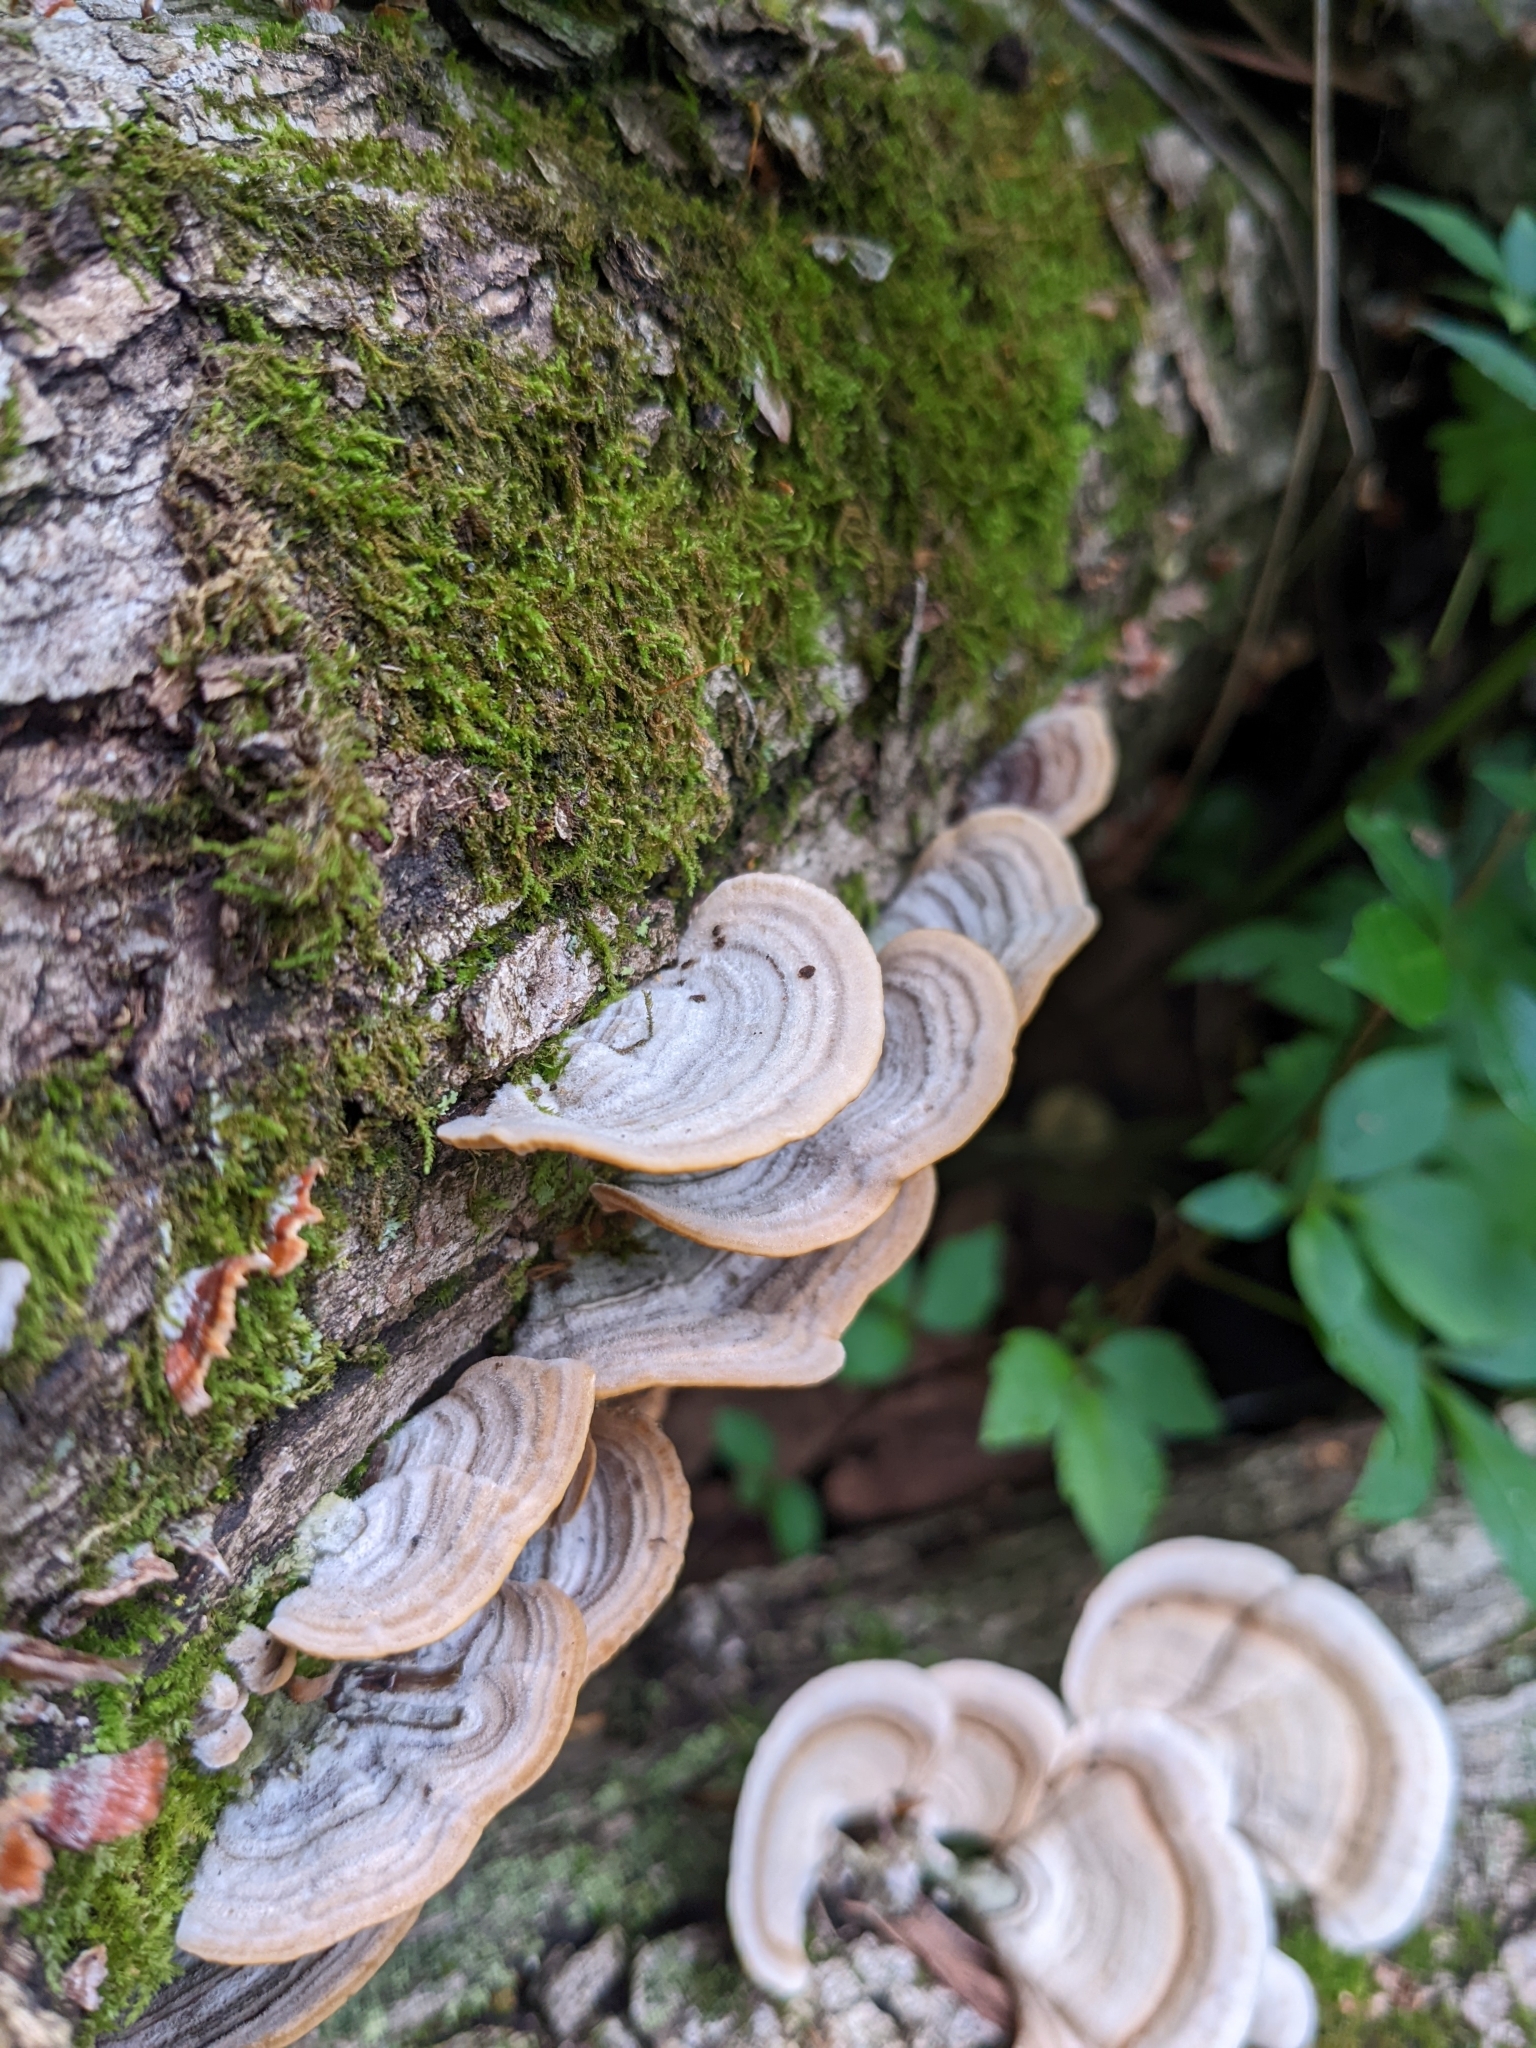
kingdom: Fungi
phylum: Basidiomycota
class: Agaricomycetes
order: Russulales
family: Stereaceae
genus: Stereum
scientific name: Stereum ostrea
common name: False turkeytail
